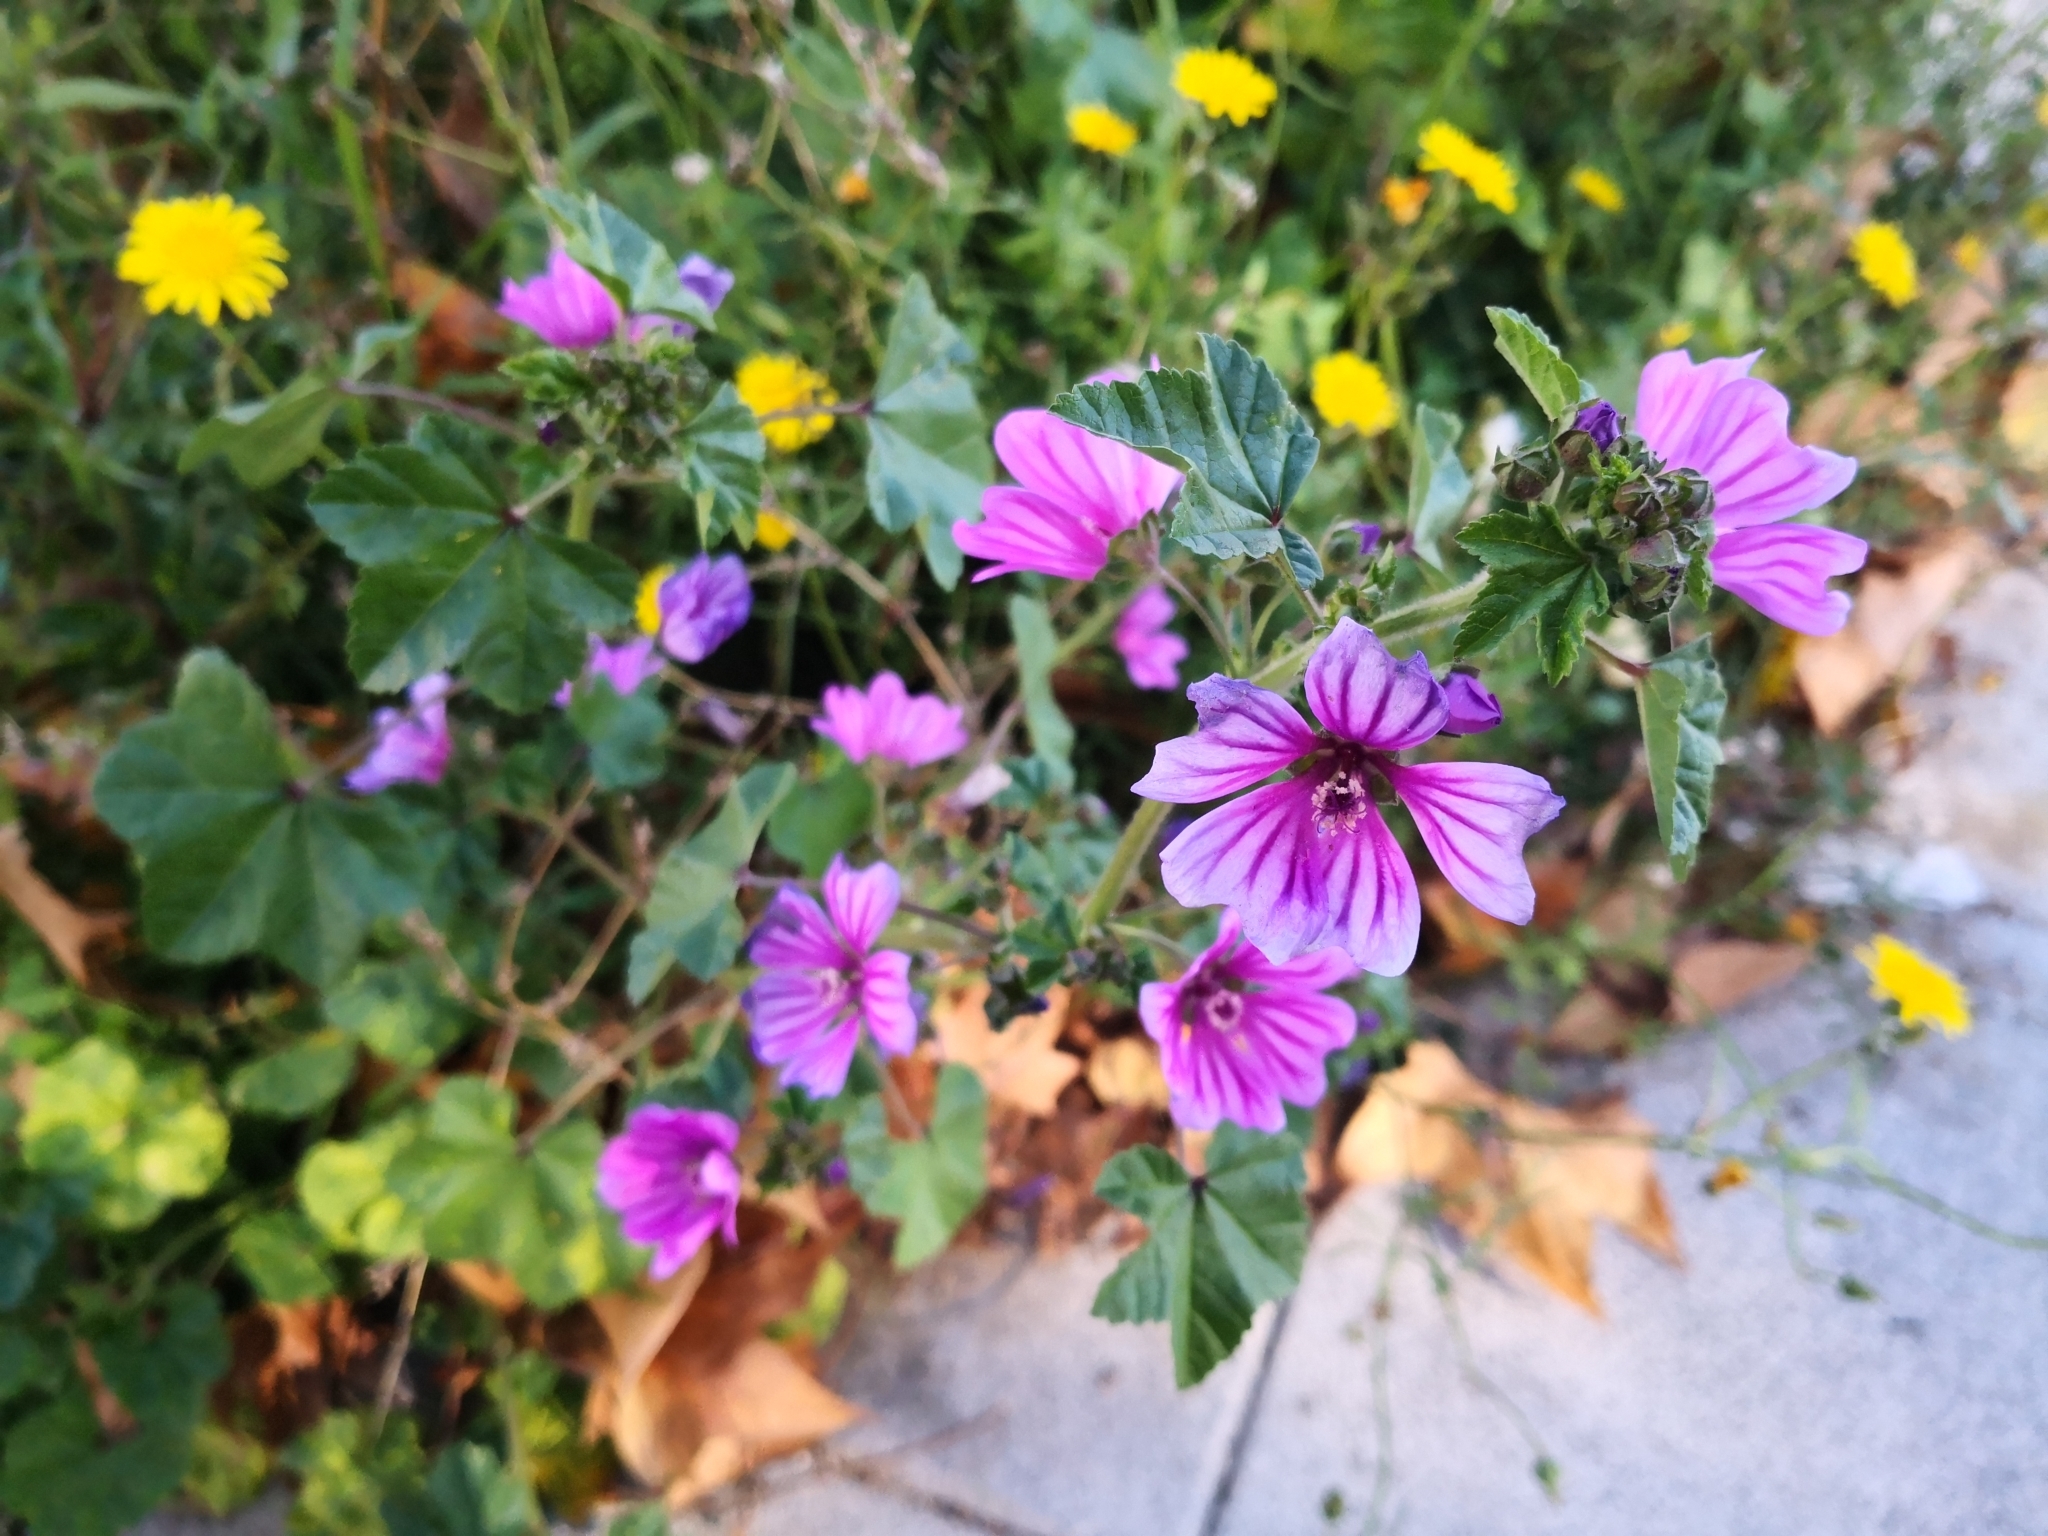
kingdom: Plantae
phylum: Tracheophyta
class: Magnoliopsida
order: Malvales
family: Malvaceae
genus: Malva
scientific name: Malva sylvestris
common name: Common mallow
